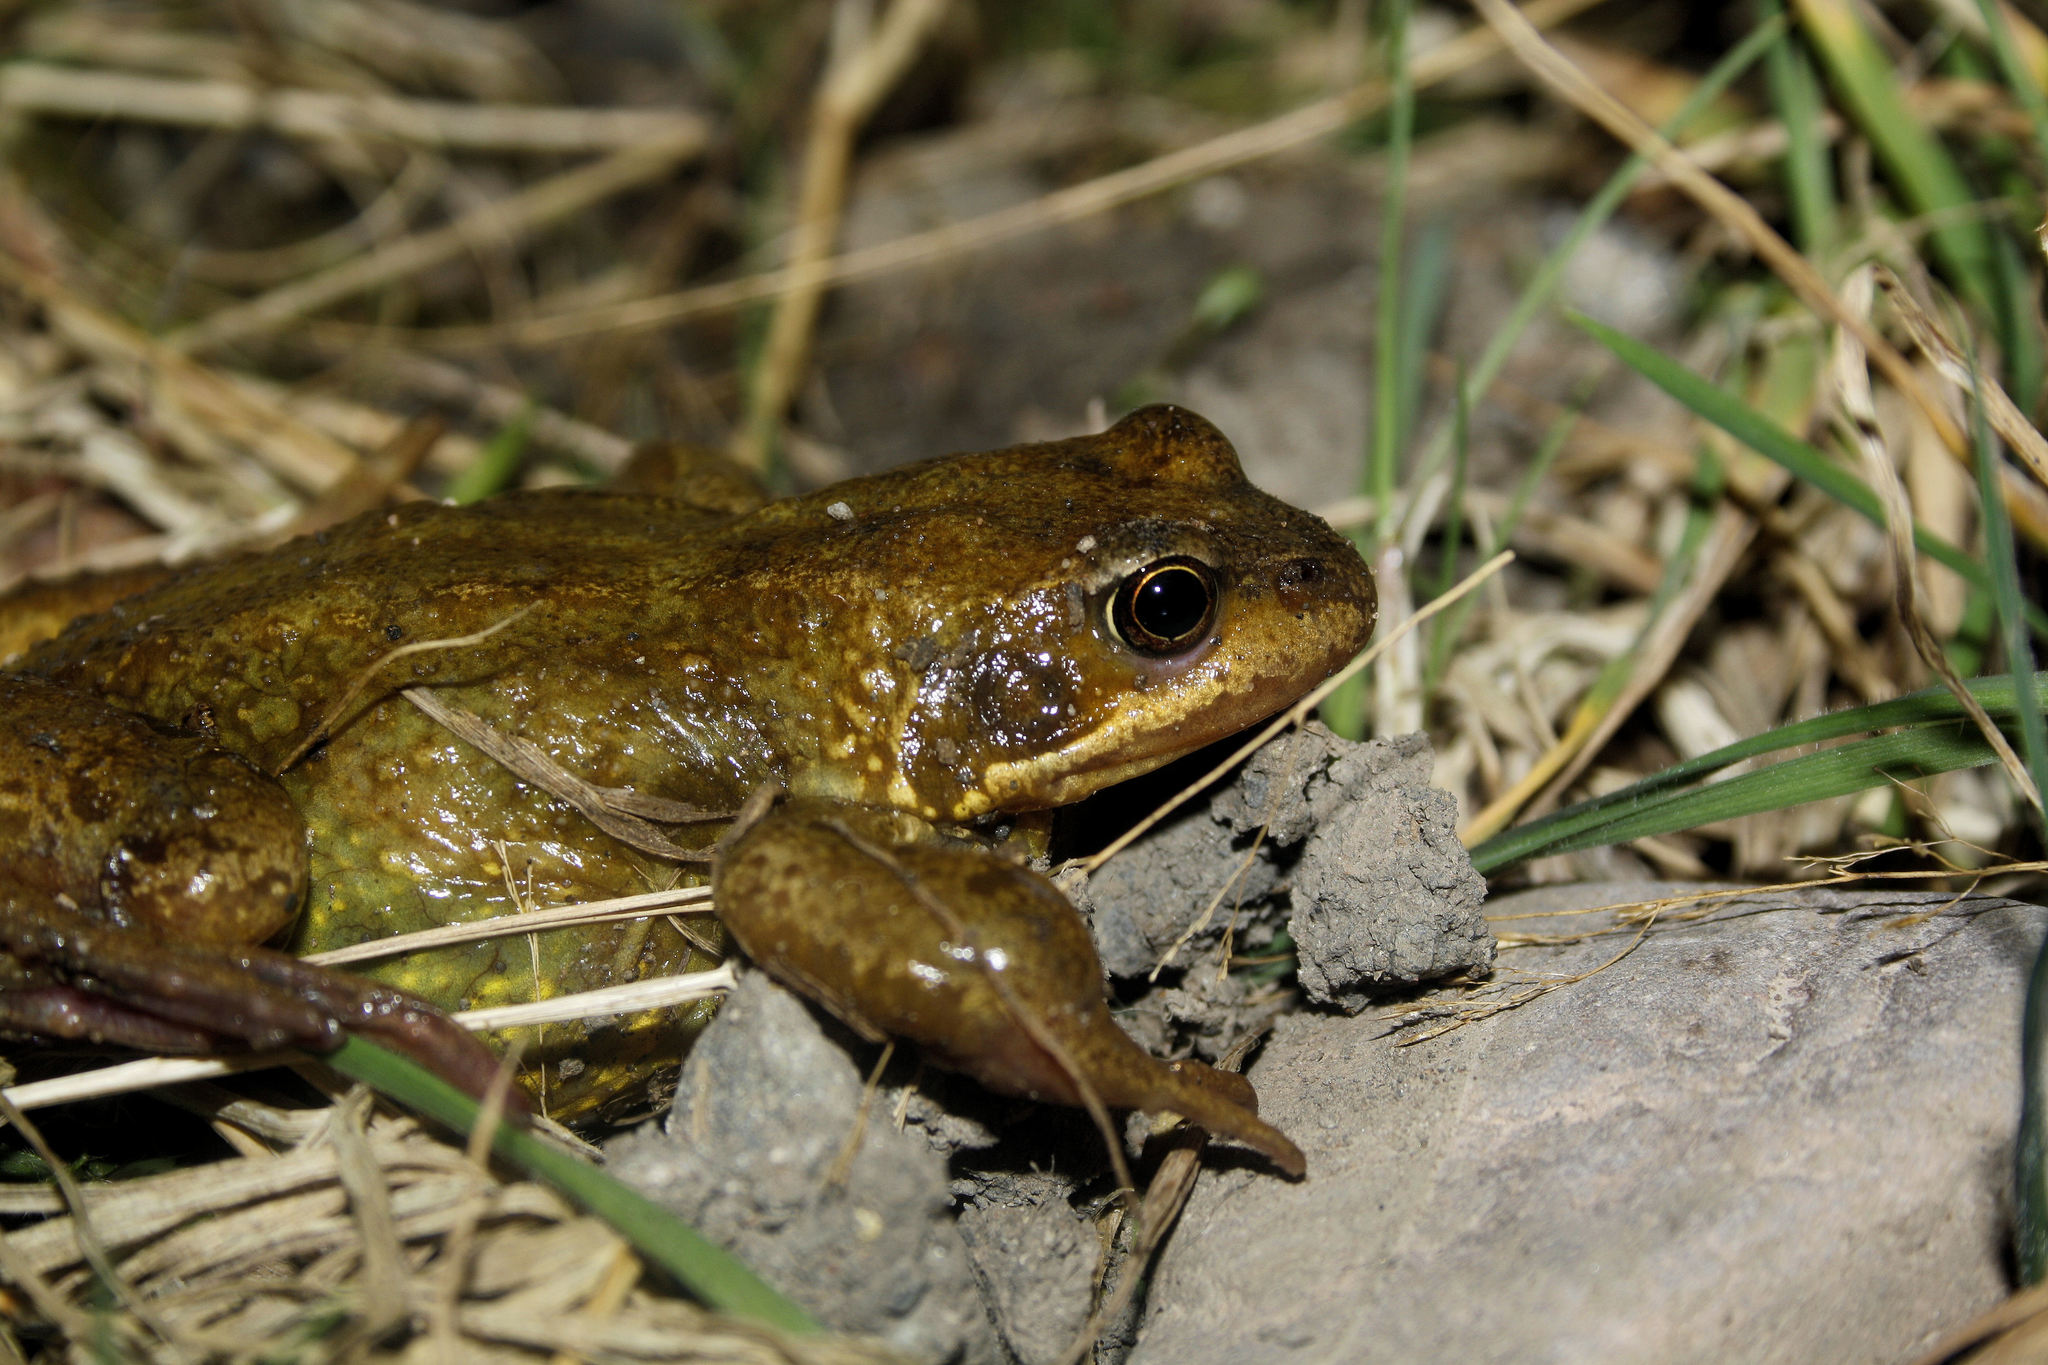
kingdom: Animalia
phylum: Chordata
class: Amphibia
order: Anura
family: Ranidae
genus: Rana
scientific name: Rana temporaria
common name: Common frog
